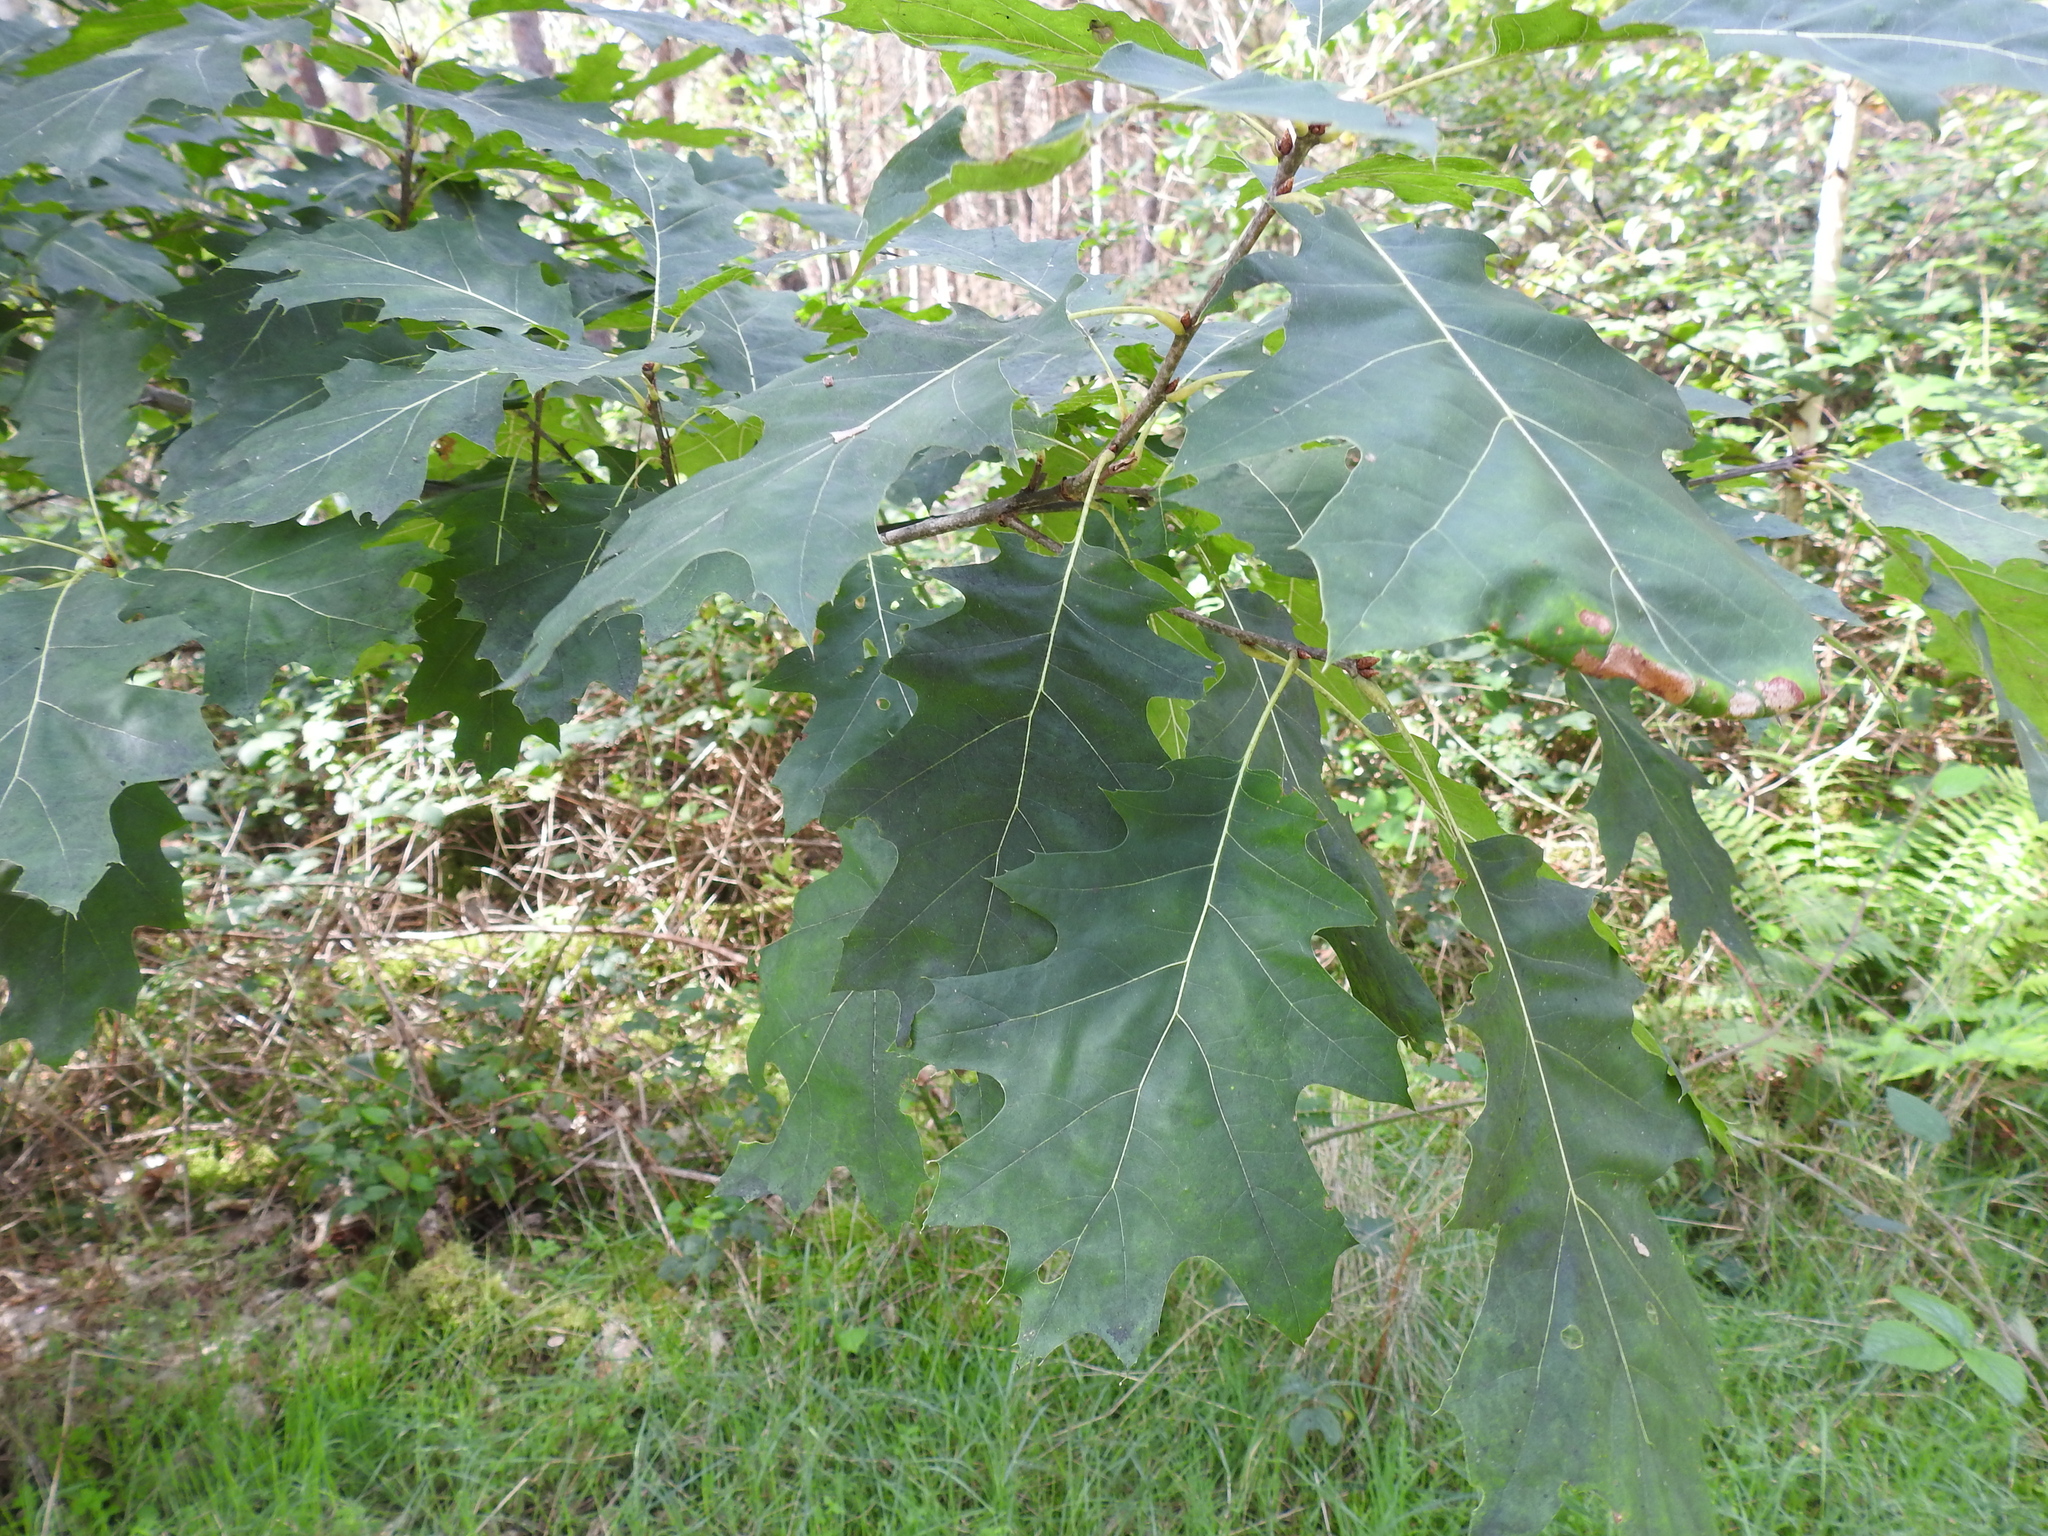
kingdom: Plantae
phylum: Tracheophyta
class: Magnoliopsida
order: Fagales
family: Fagaceae
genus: Quercus
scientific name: Quercus rubra
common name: Red oak
